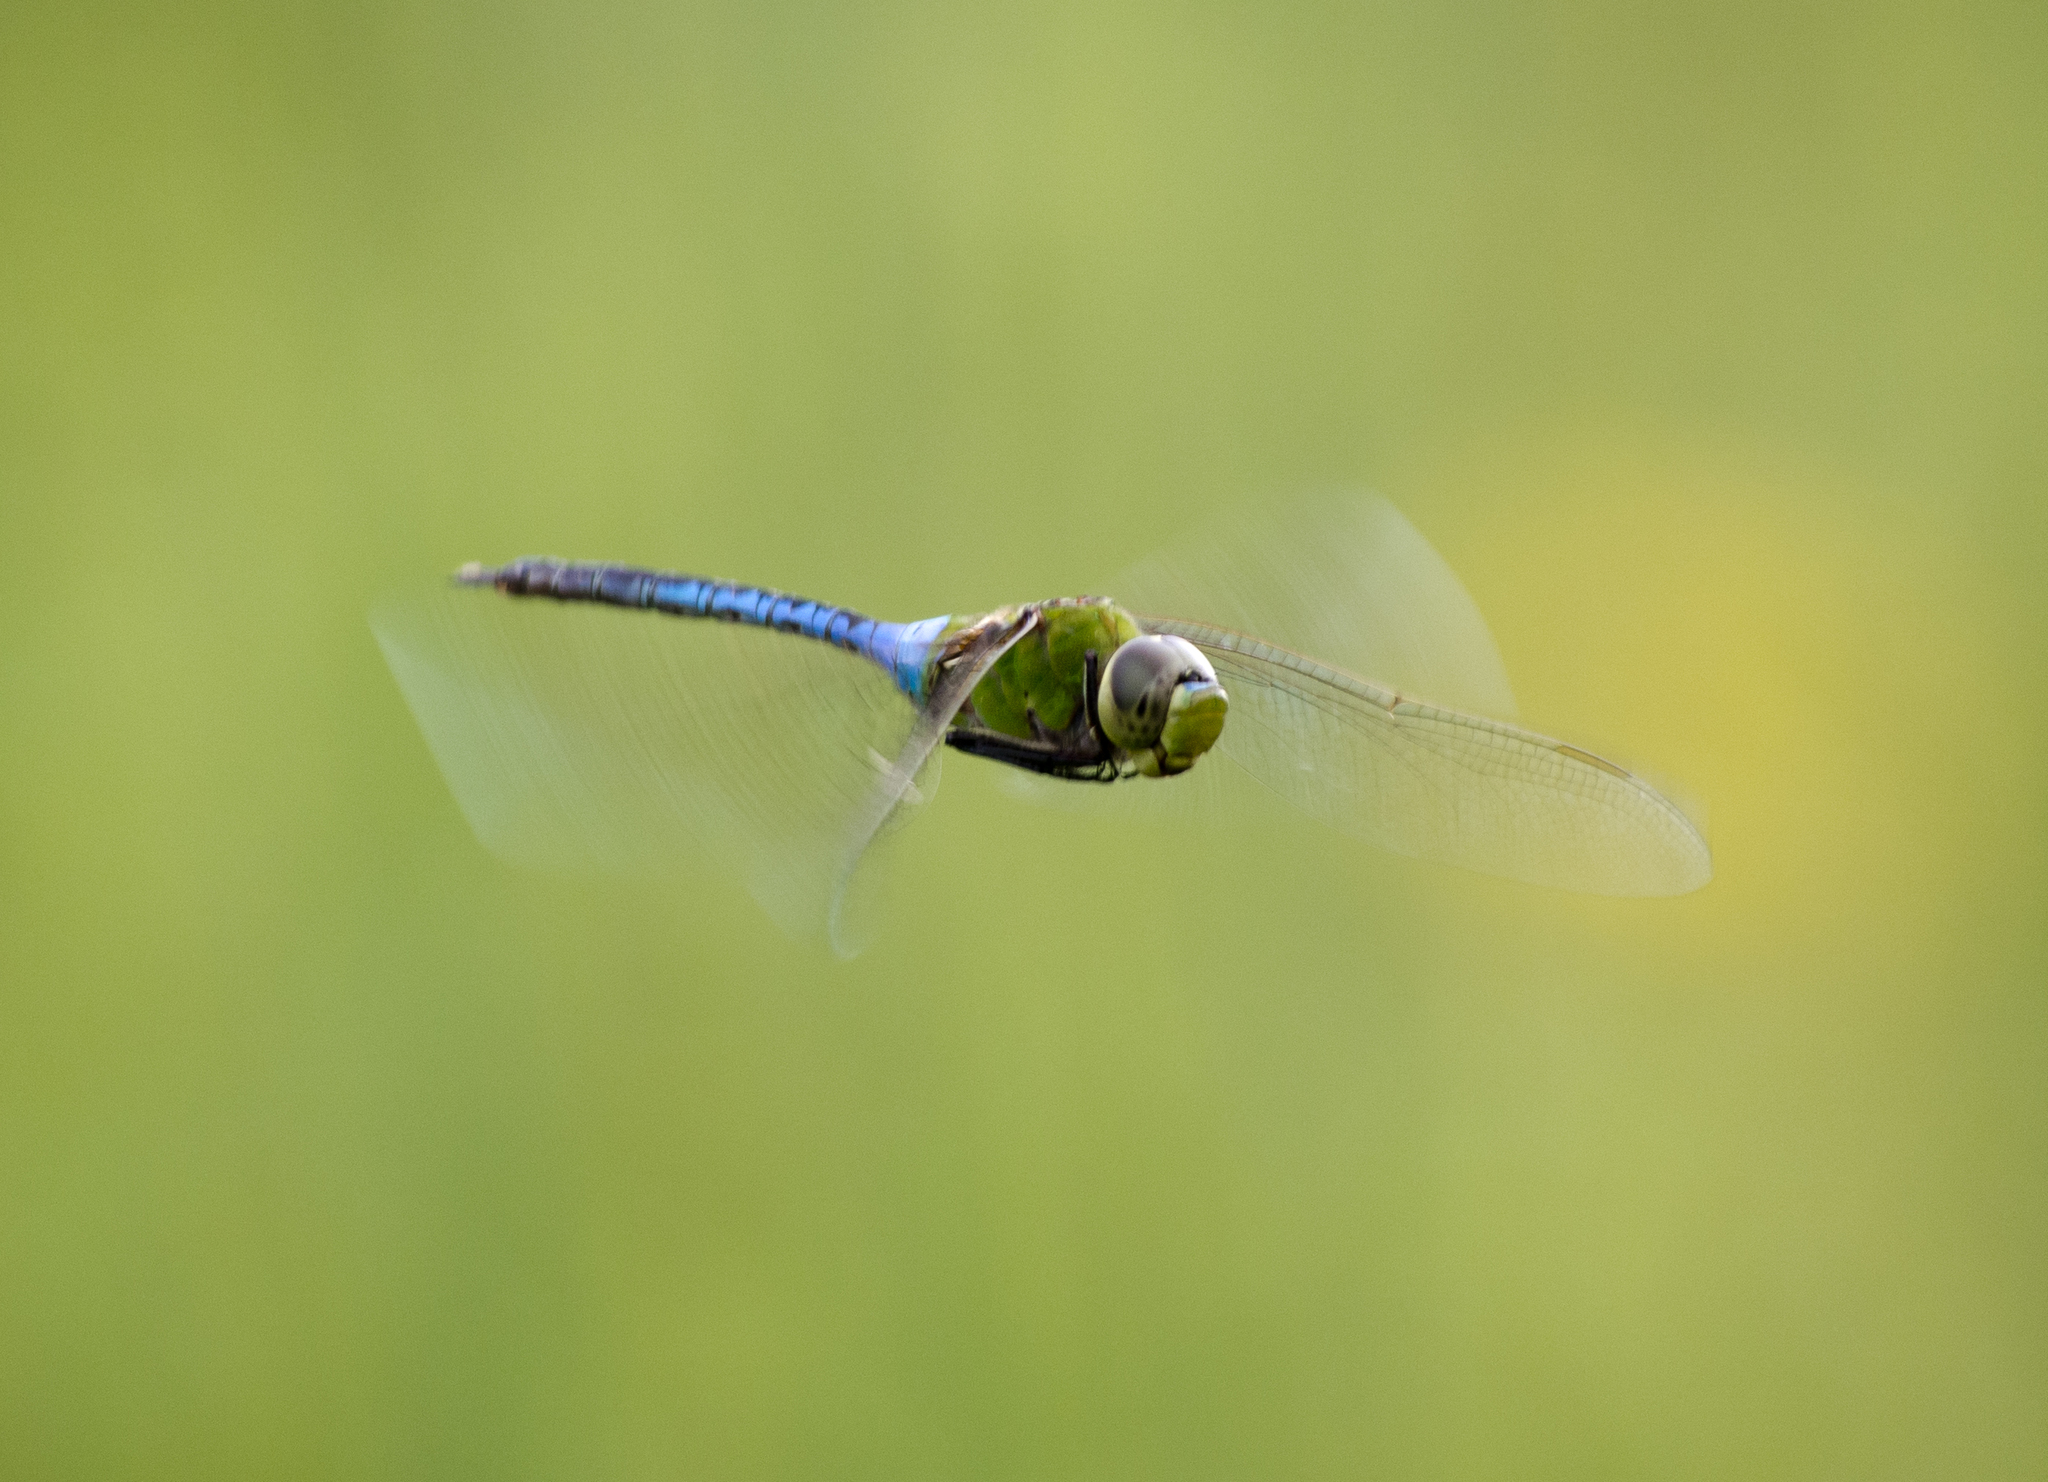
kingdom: Animalia
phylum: Arthropoda
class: Insecta
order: Odonata
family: Aeshnidae
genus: Anax
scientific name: Anax junius
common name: Common green darner
